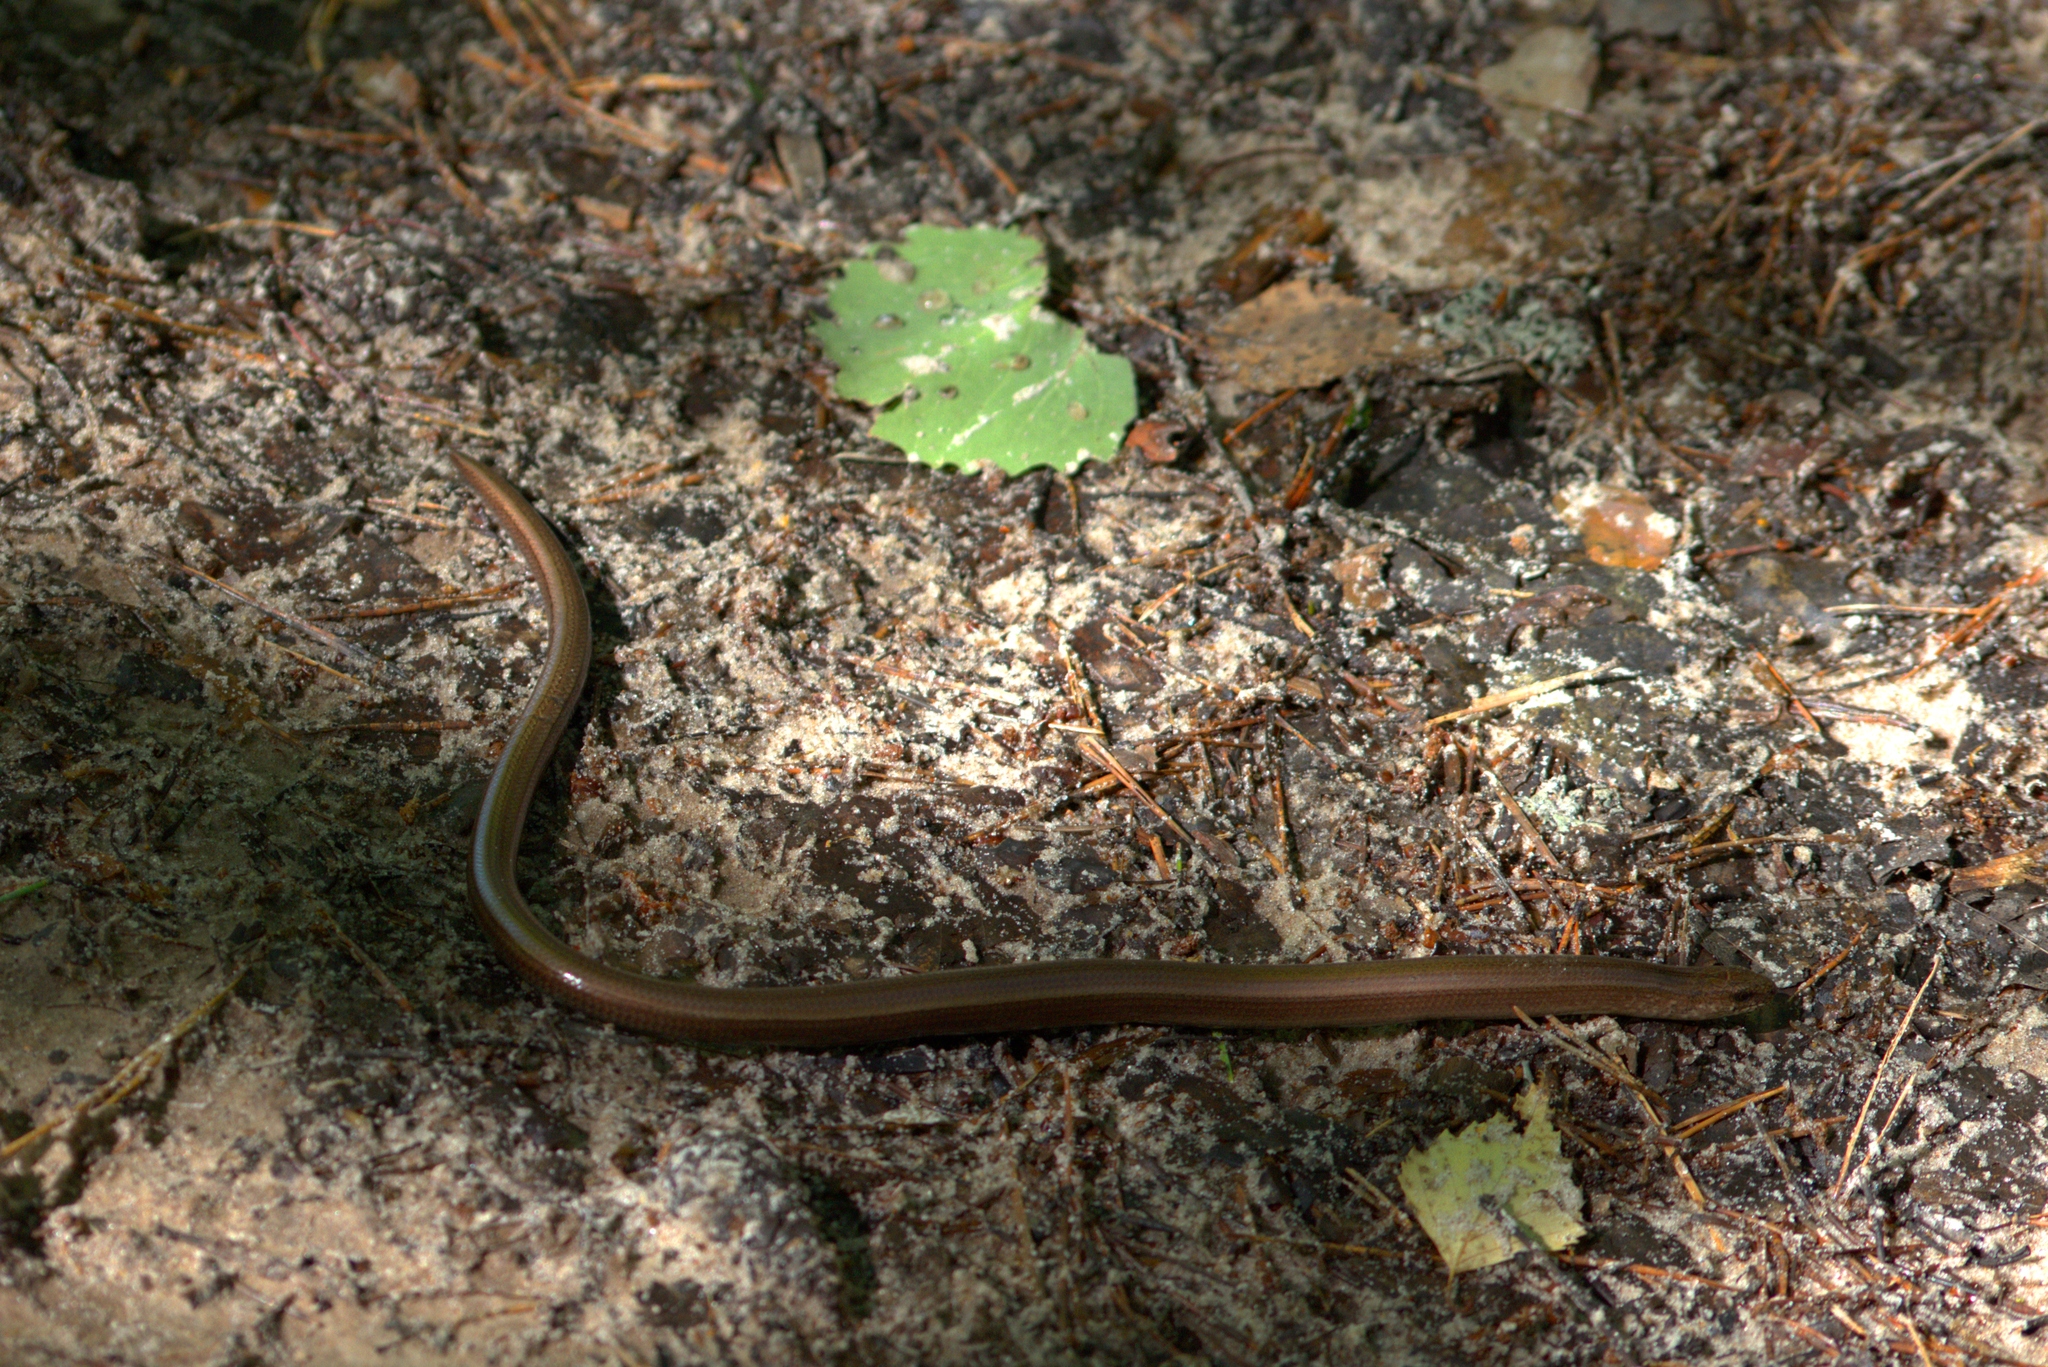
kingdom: Animalia
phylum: Chordata
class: Squamata
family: Anguidae
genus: Anguis
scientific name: Anguis colchica
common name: Slow worm
